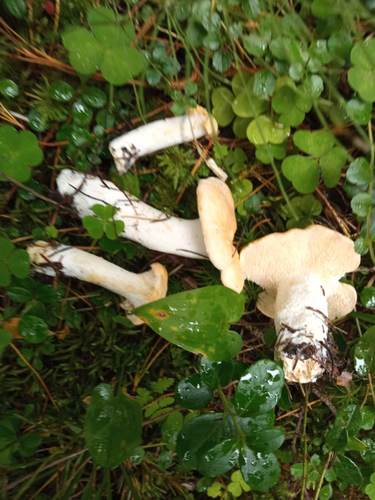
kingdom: Fungi
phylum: Basidiomycota
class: Agaricomycetes
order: Cantharellales
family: Hydnaceae
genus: Hydnum
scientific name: Hydnum repandum
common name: Wood hedgehog
